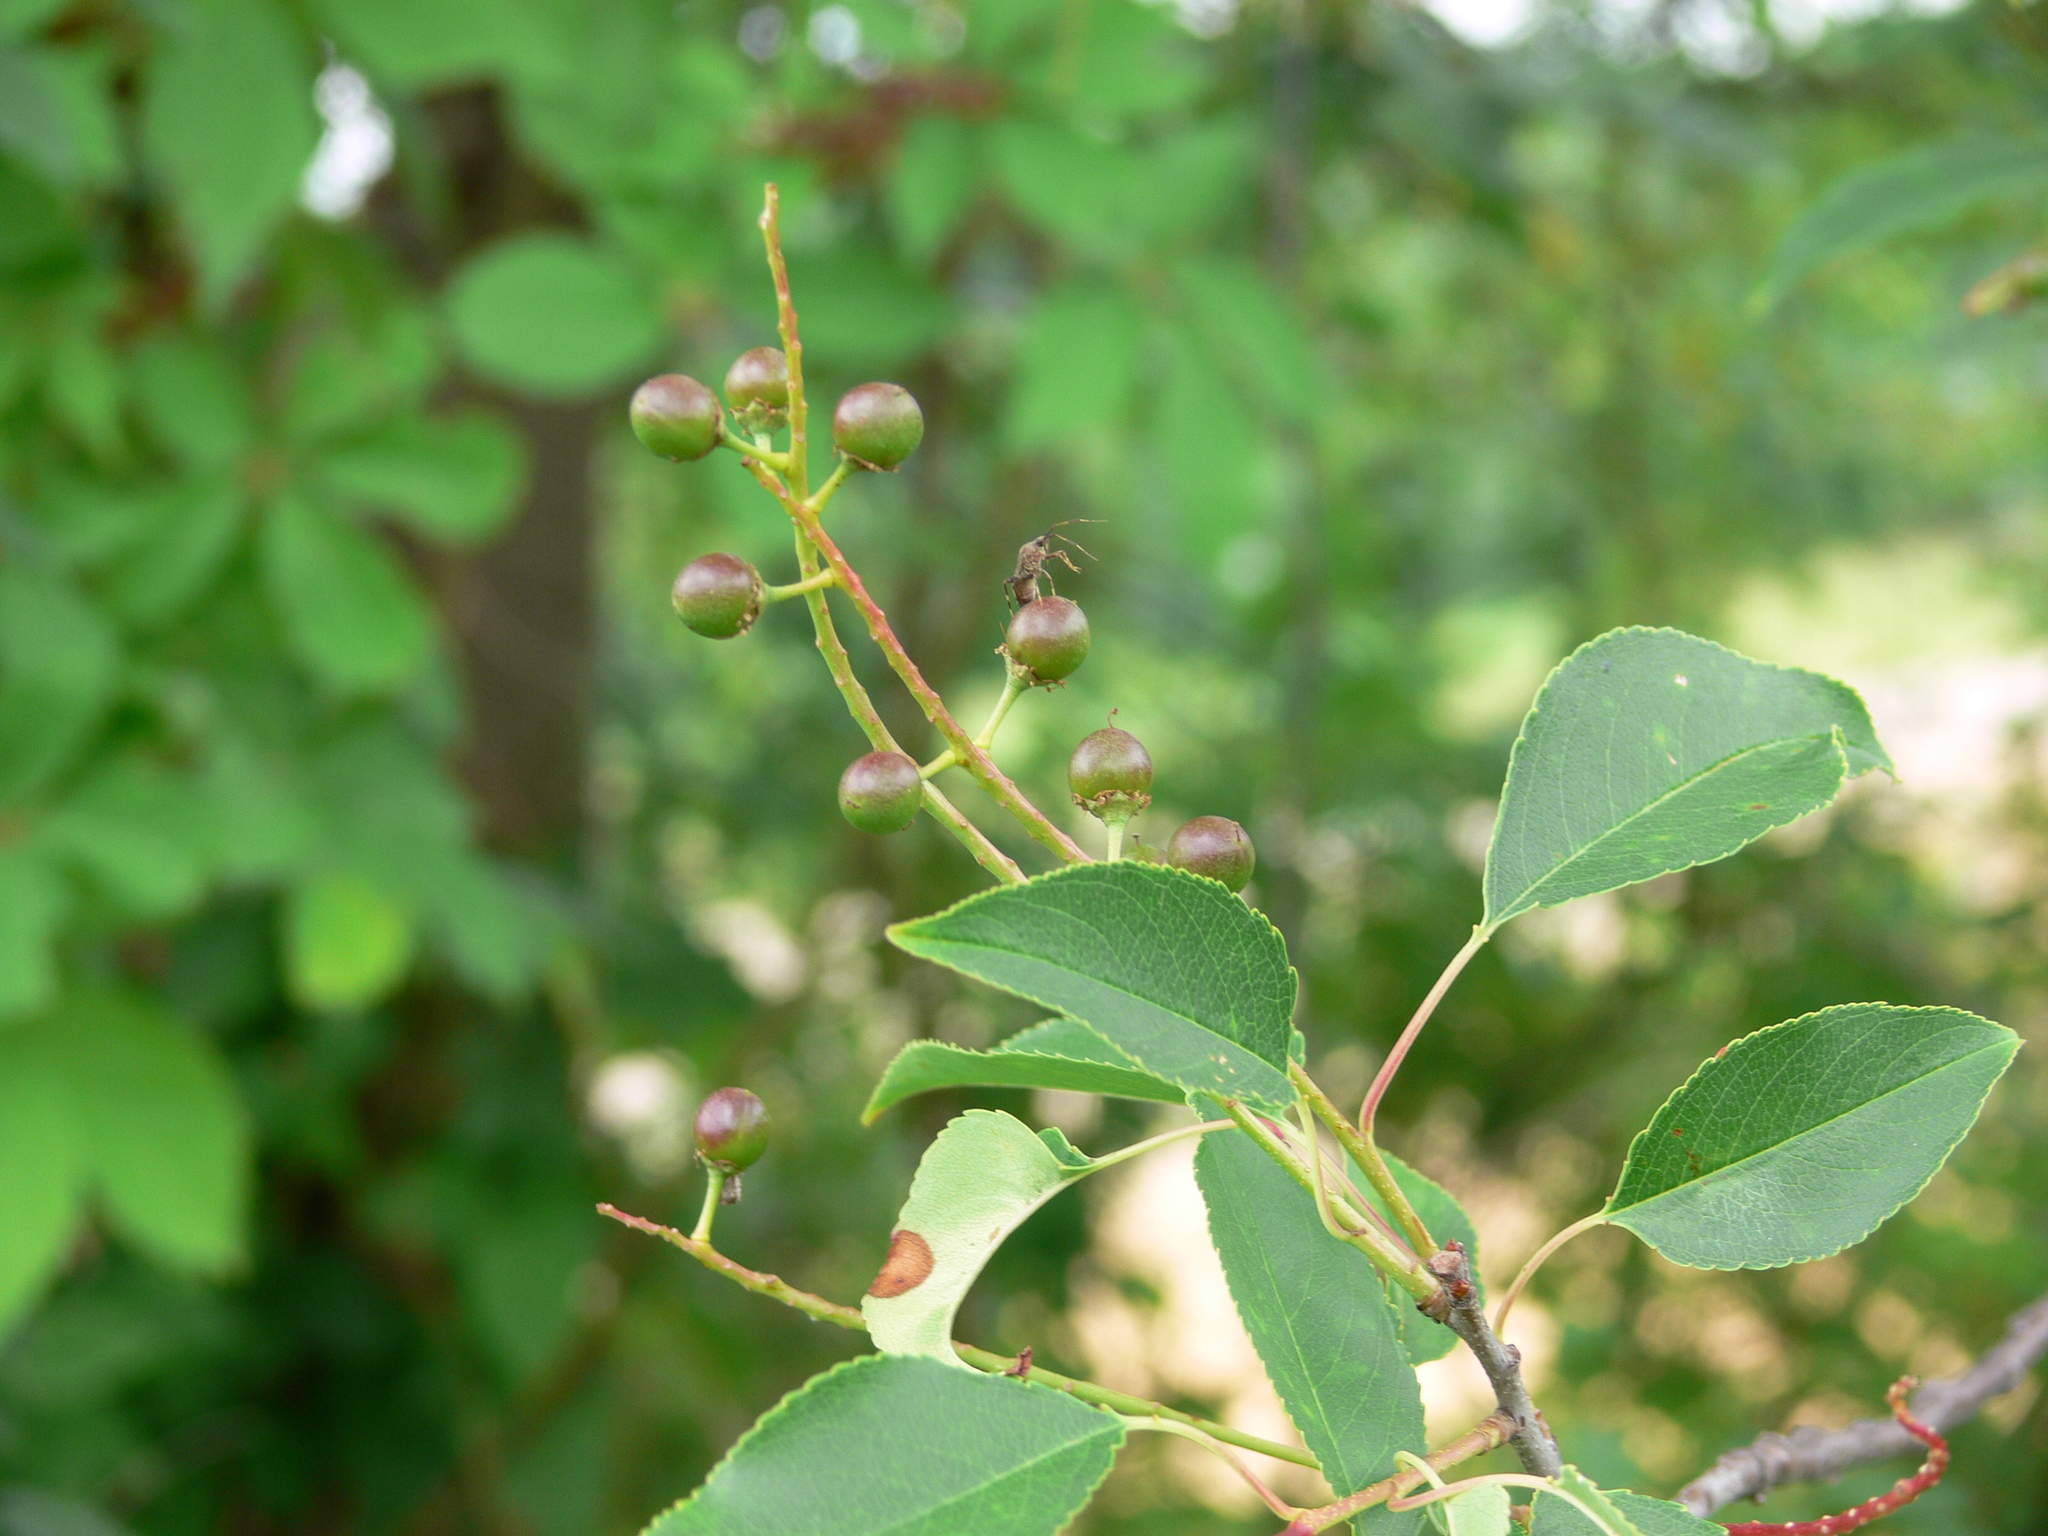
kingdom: Plantae
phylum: Tracheophyta
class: Magnoliopsida
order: Rosales
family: Rosaceae
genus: Prunus
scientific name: Prunus serotina
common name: Black cherry
